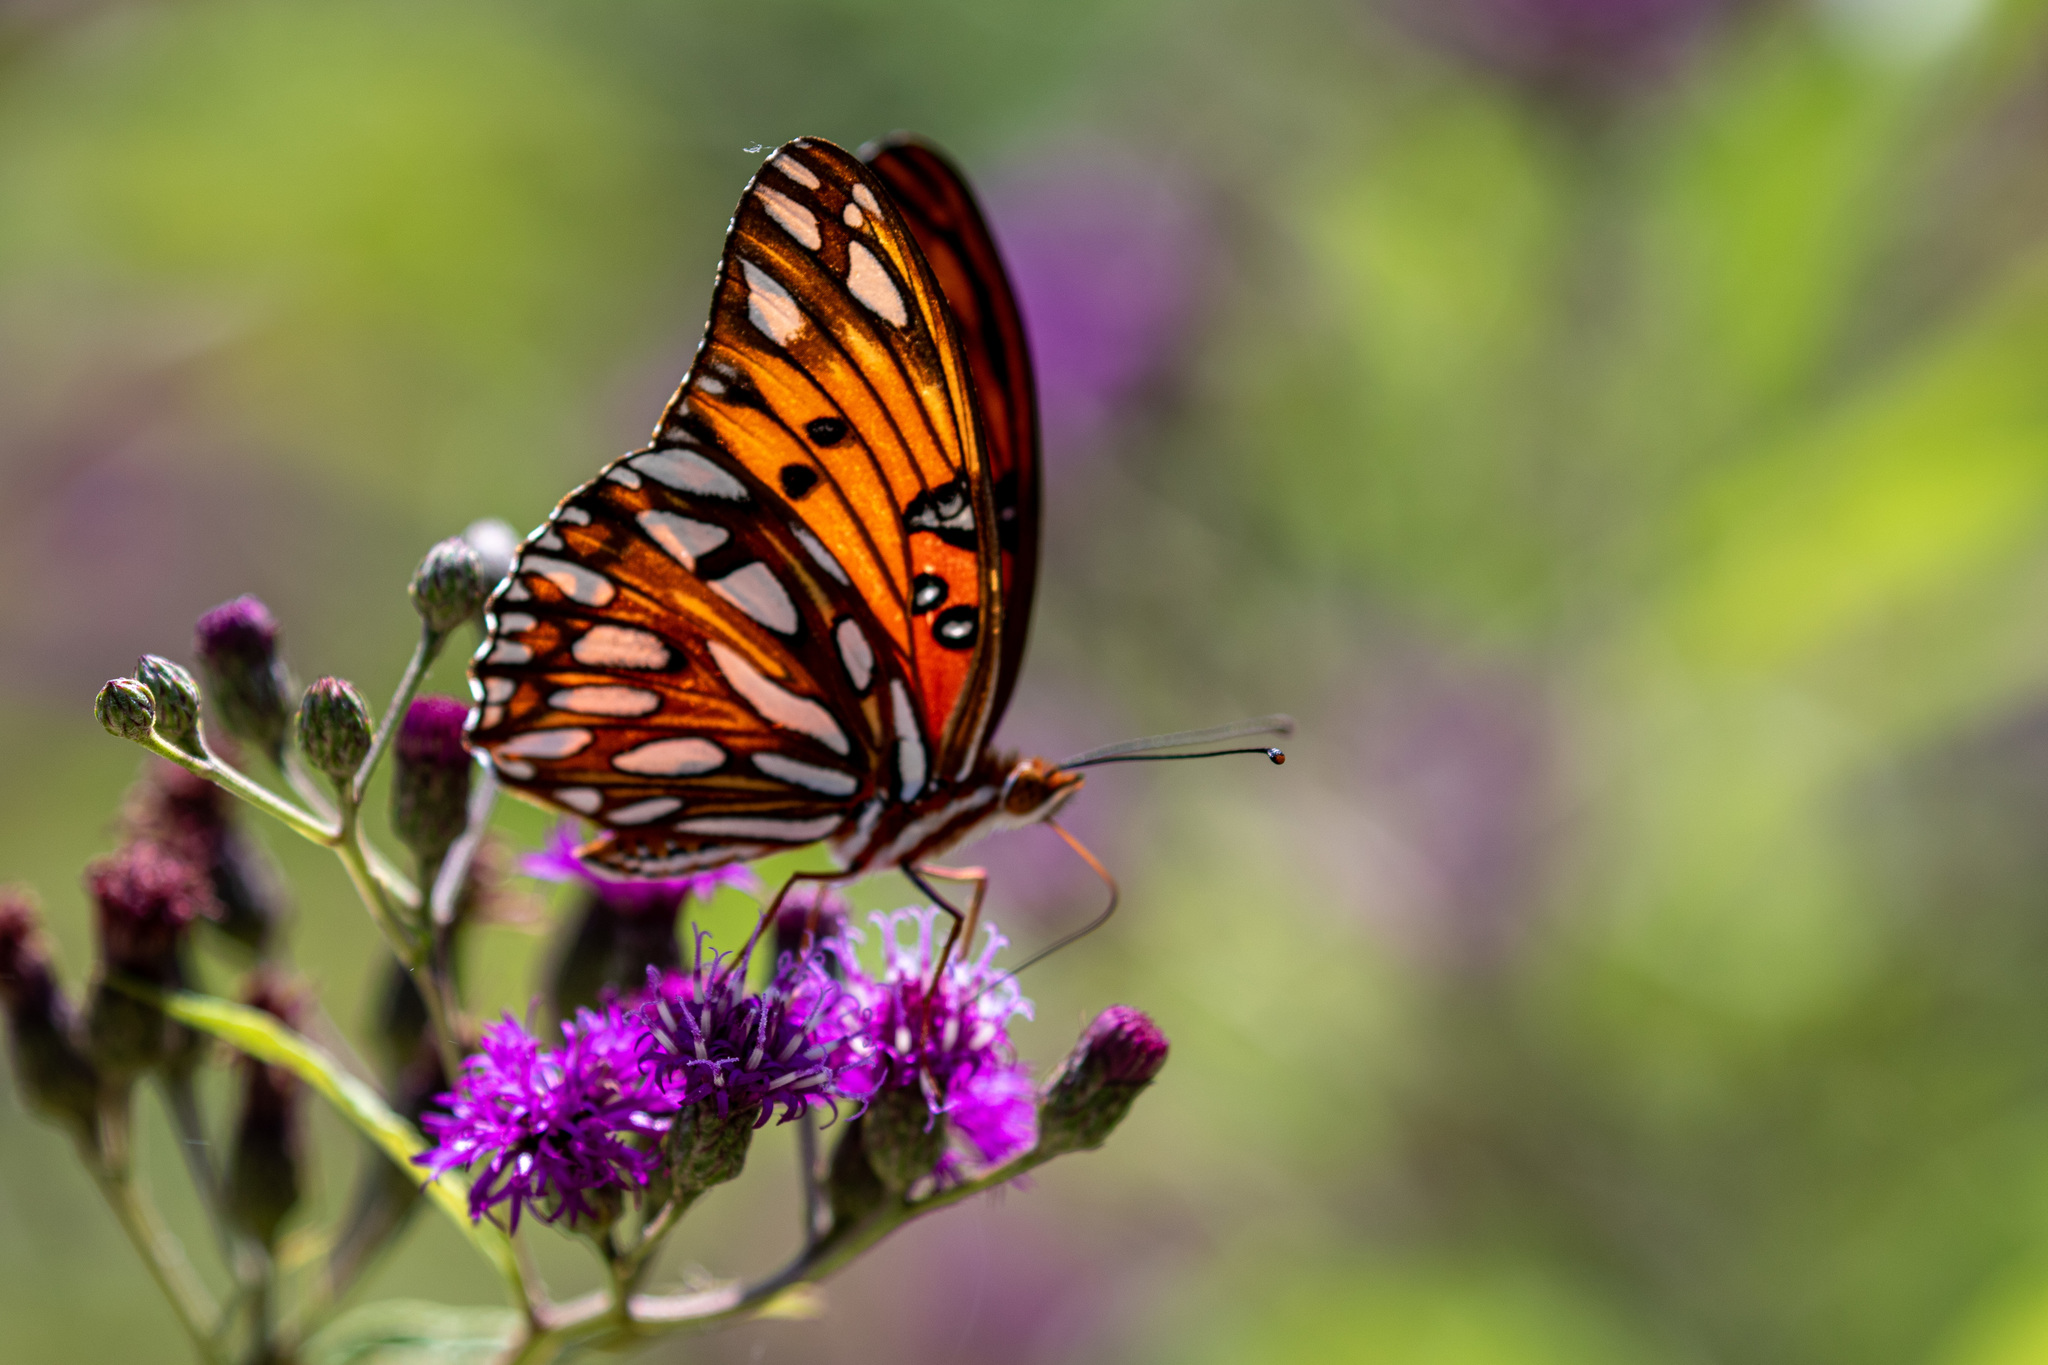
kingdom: Animalia
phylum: Arthropoda
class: Insecta
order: Lepidoptera
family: Nymphalidae
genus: Dione
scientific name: Dione vanillae
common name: Gulf fritillary
